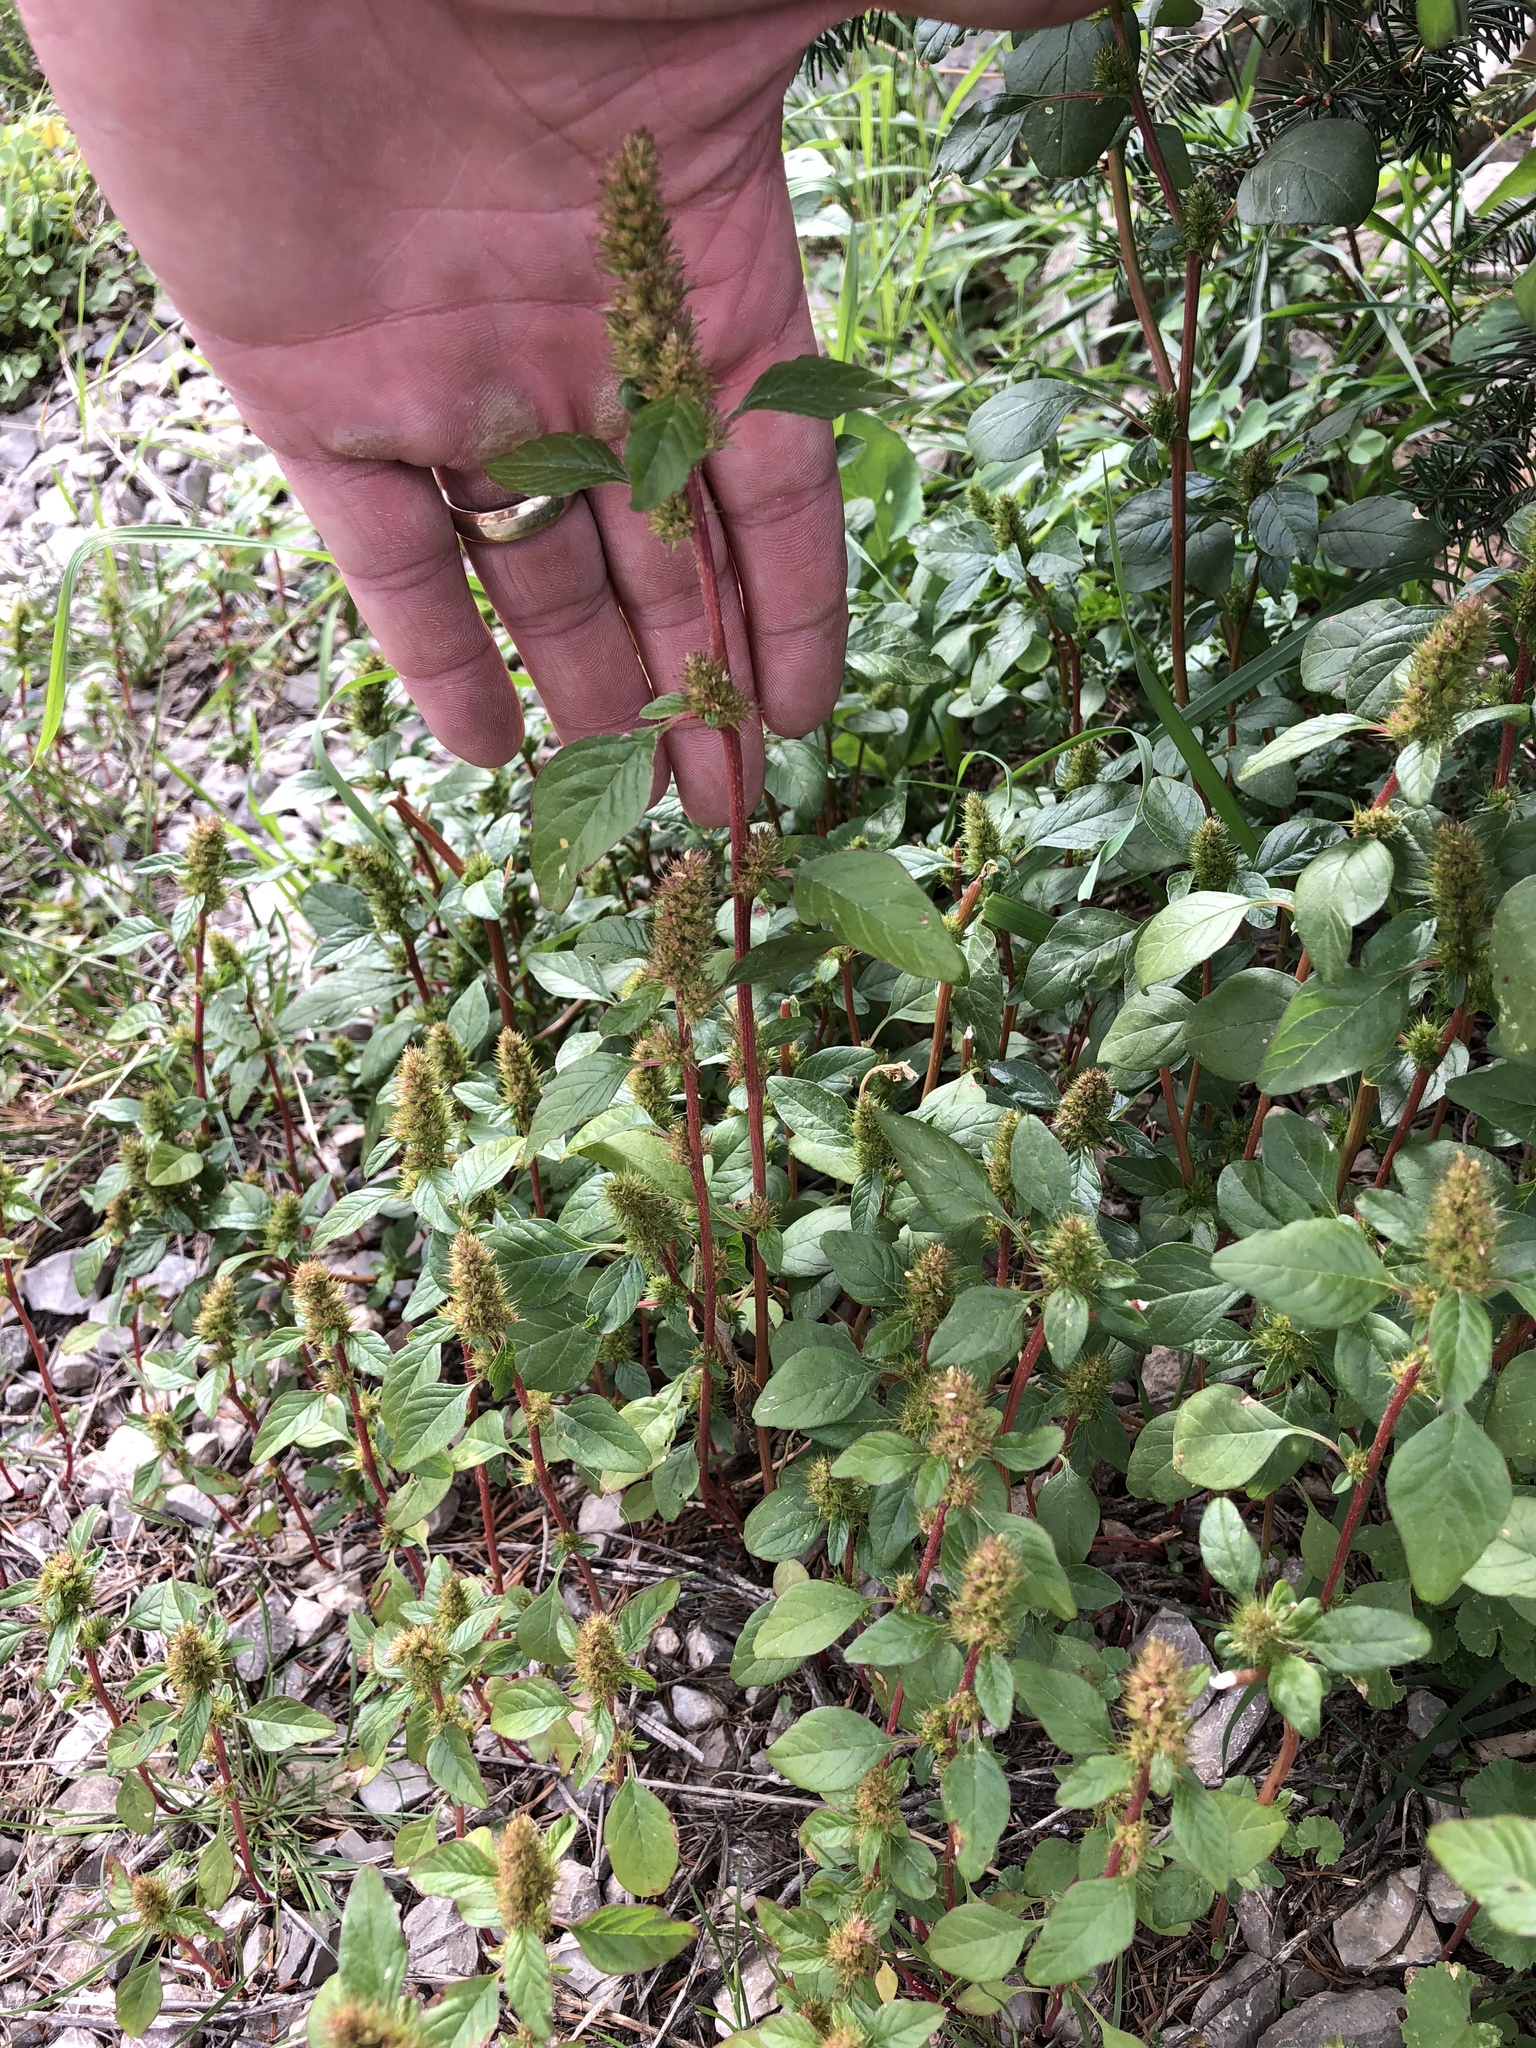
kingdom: Plantae
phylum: Tracheophyta
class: Magnoliopsida
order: Caryophyllales
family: Amaranthaceae
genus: Amaranthus
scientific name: Amaranthus retroflexus
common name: Redroot amaranth
